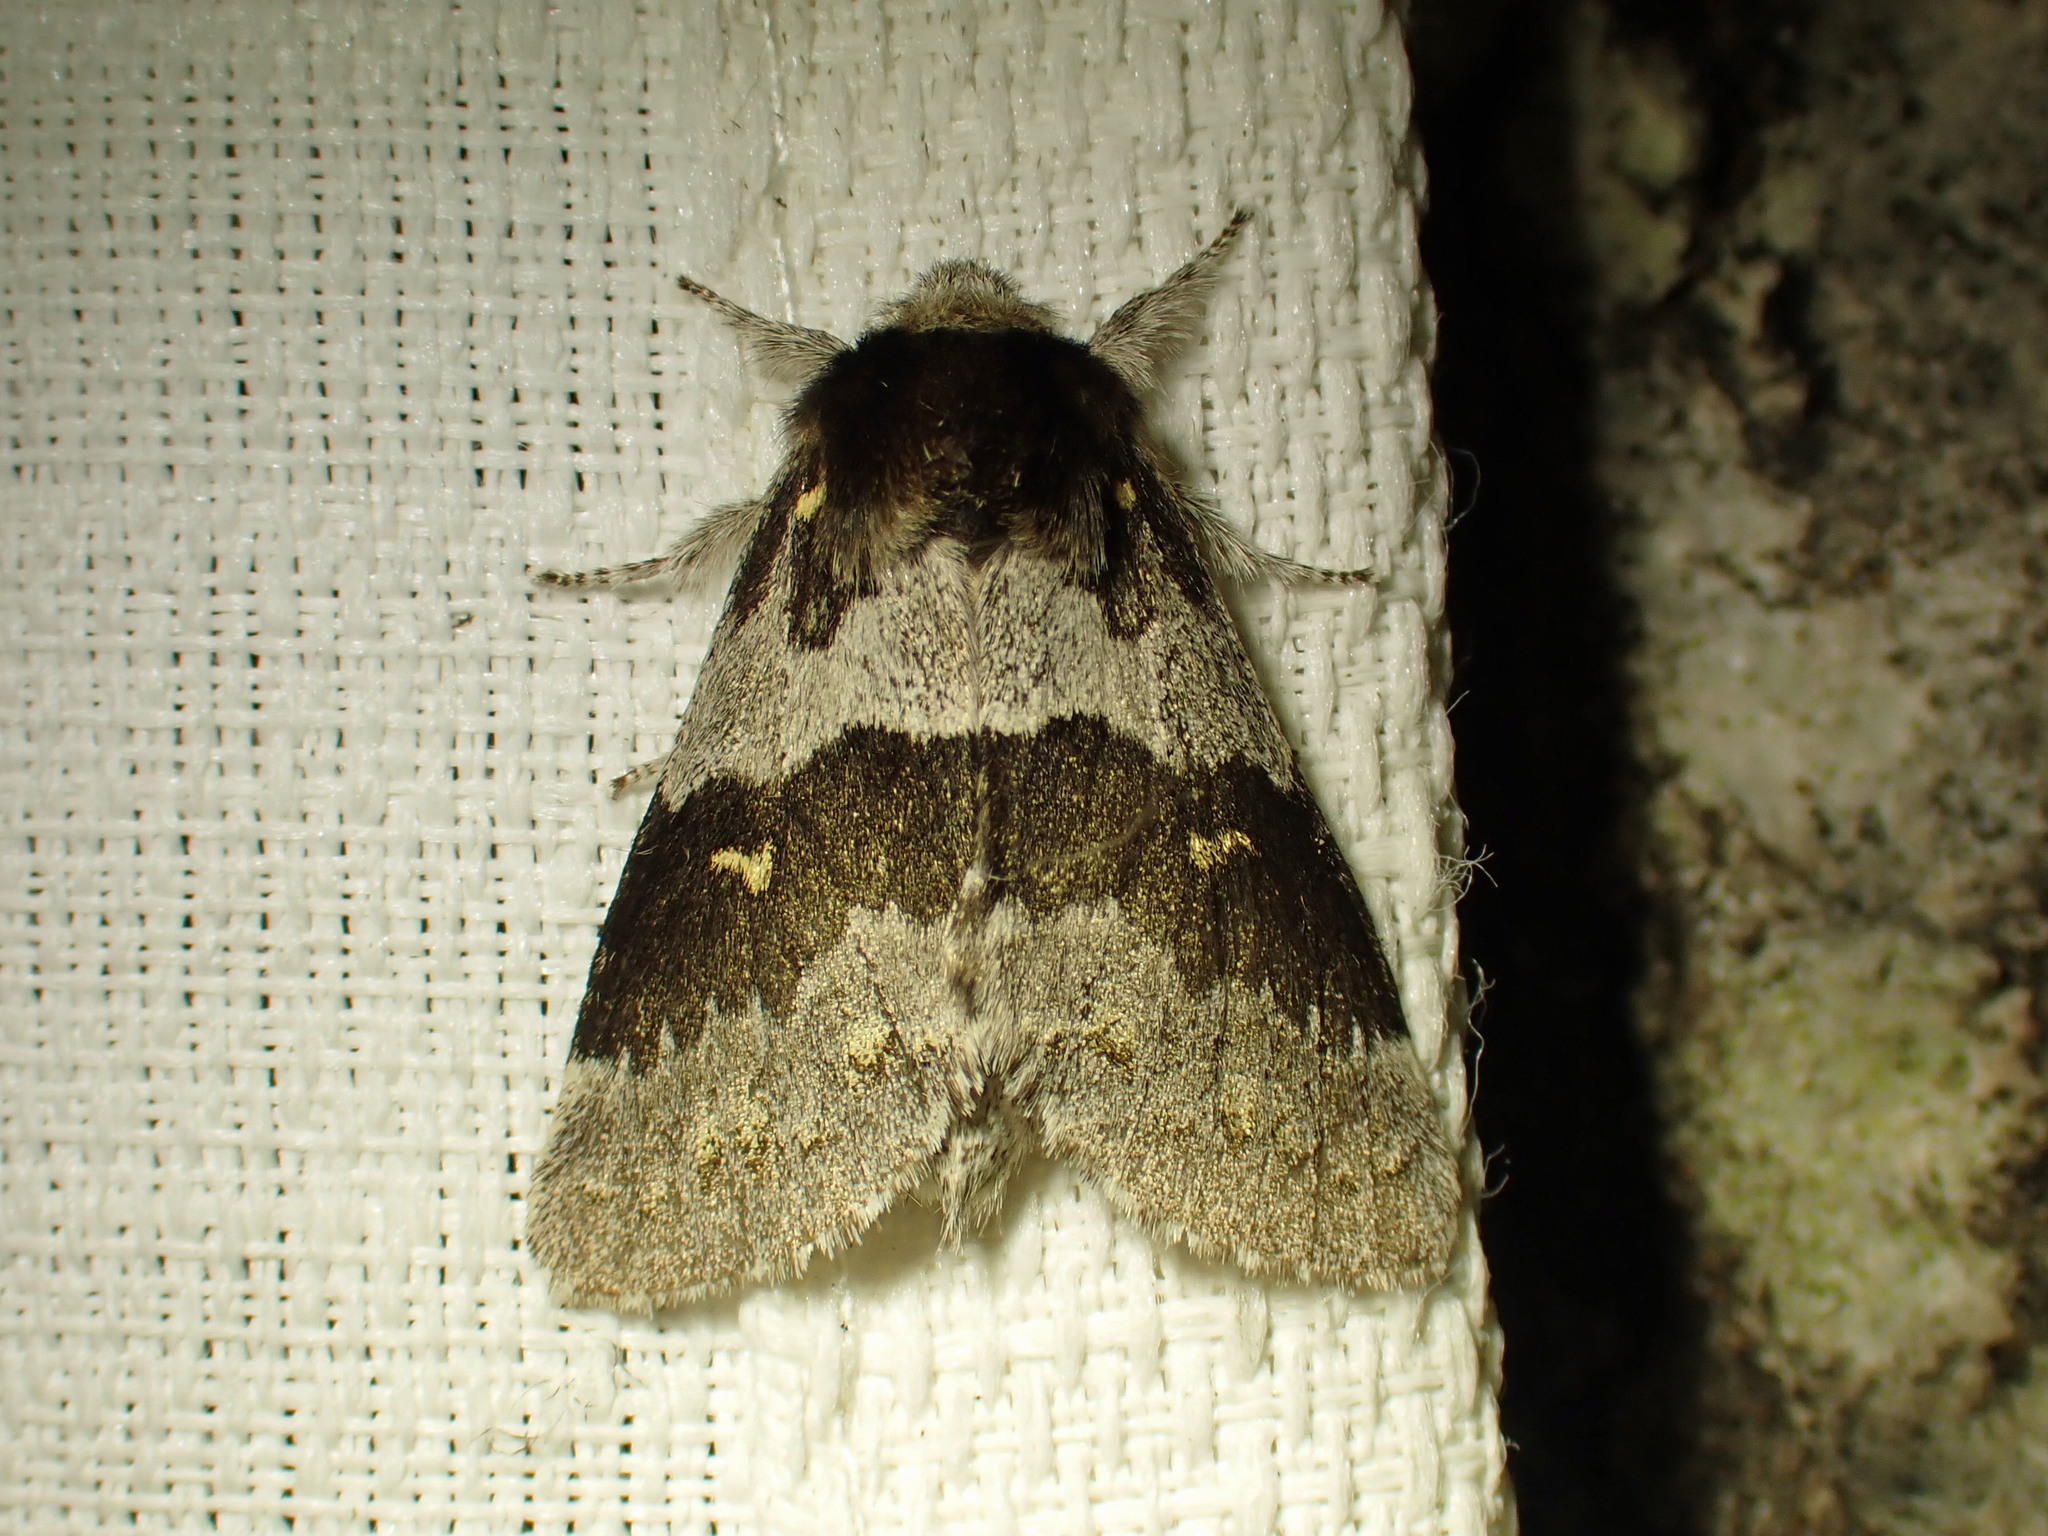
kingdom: Animalia
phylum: Arthropoda
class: Insecta
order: Lepidoptera
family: Notodontidae
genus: Gluphisia
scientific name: Gluphisia avimacula
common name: Four-spotted gluphisia moth
